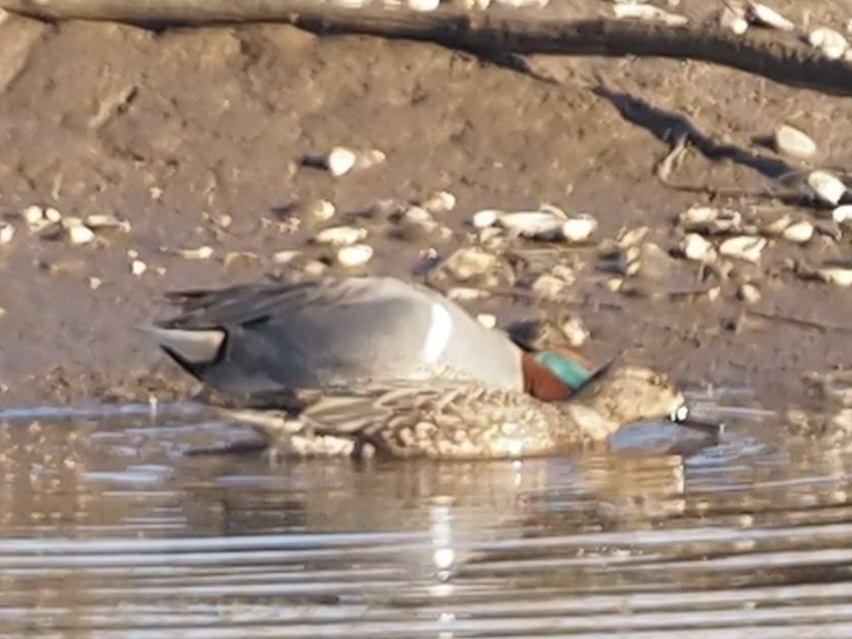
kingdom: Animalia
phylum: Chordata
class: Aves
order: Anseriformes
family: Anatidae
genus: Anas
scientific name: Anas carolinensis
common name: Green-winged teal
